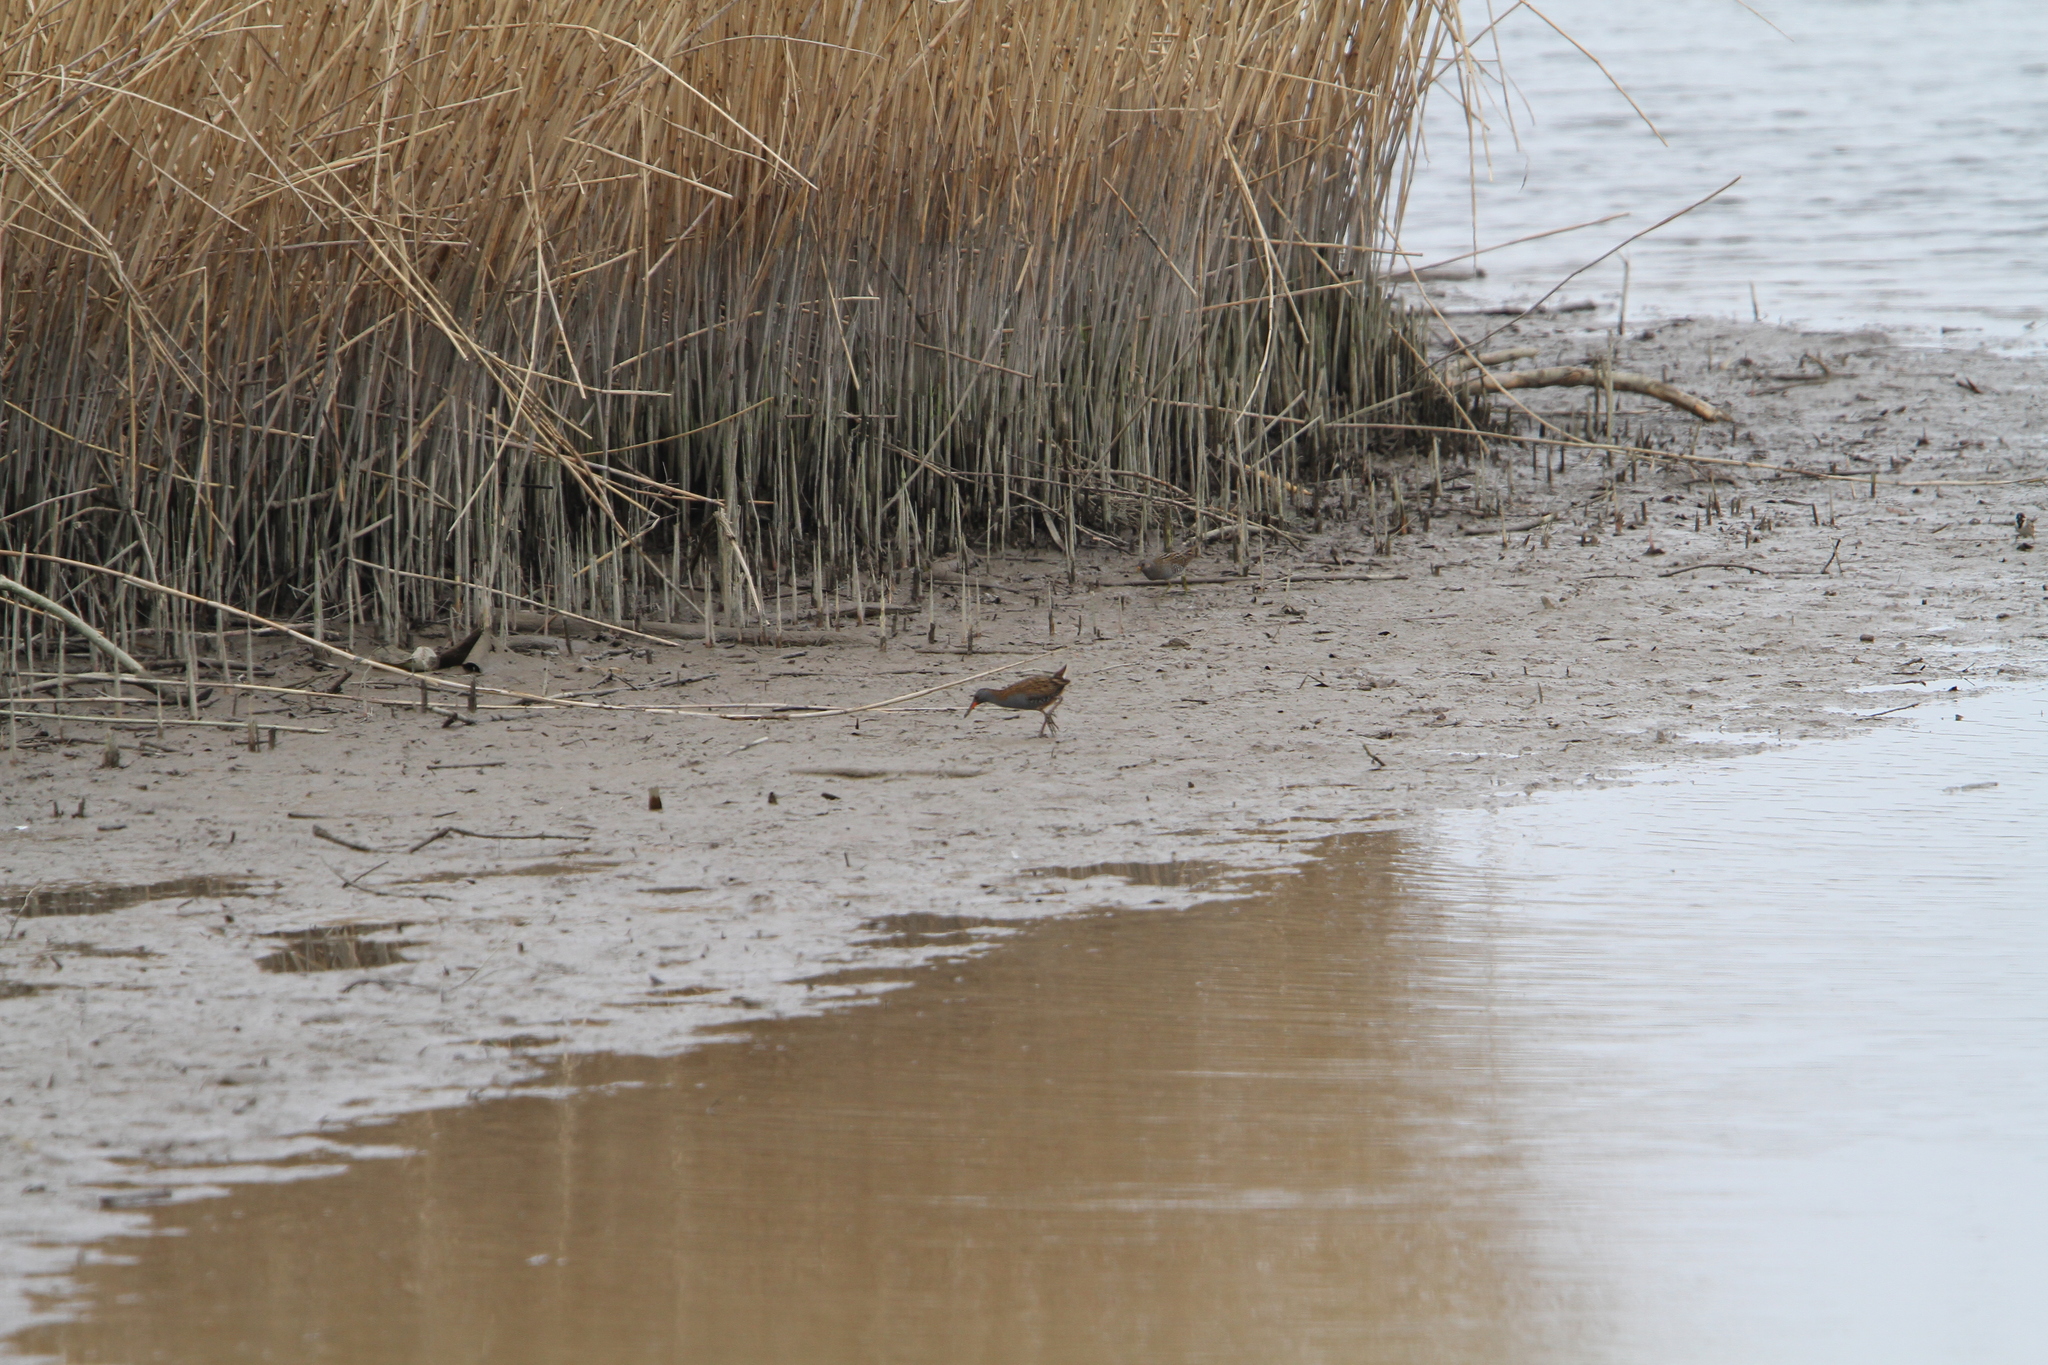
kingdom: Animalia
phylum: Chordata
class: Aves
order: Gruiformes
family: Rallidae
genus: Porzana
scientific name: Porzana porzana
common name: Spotted crake
